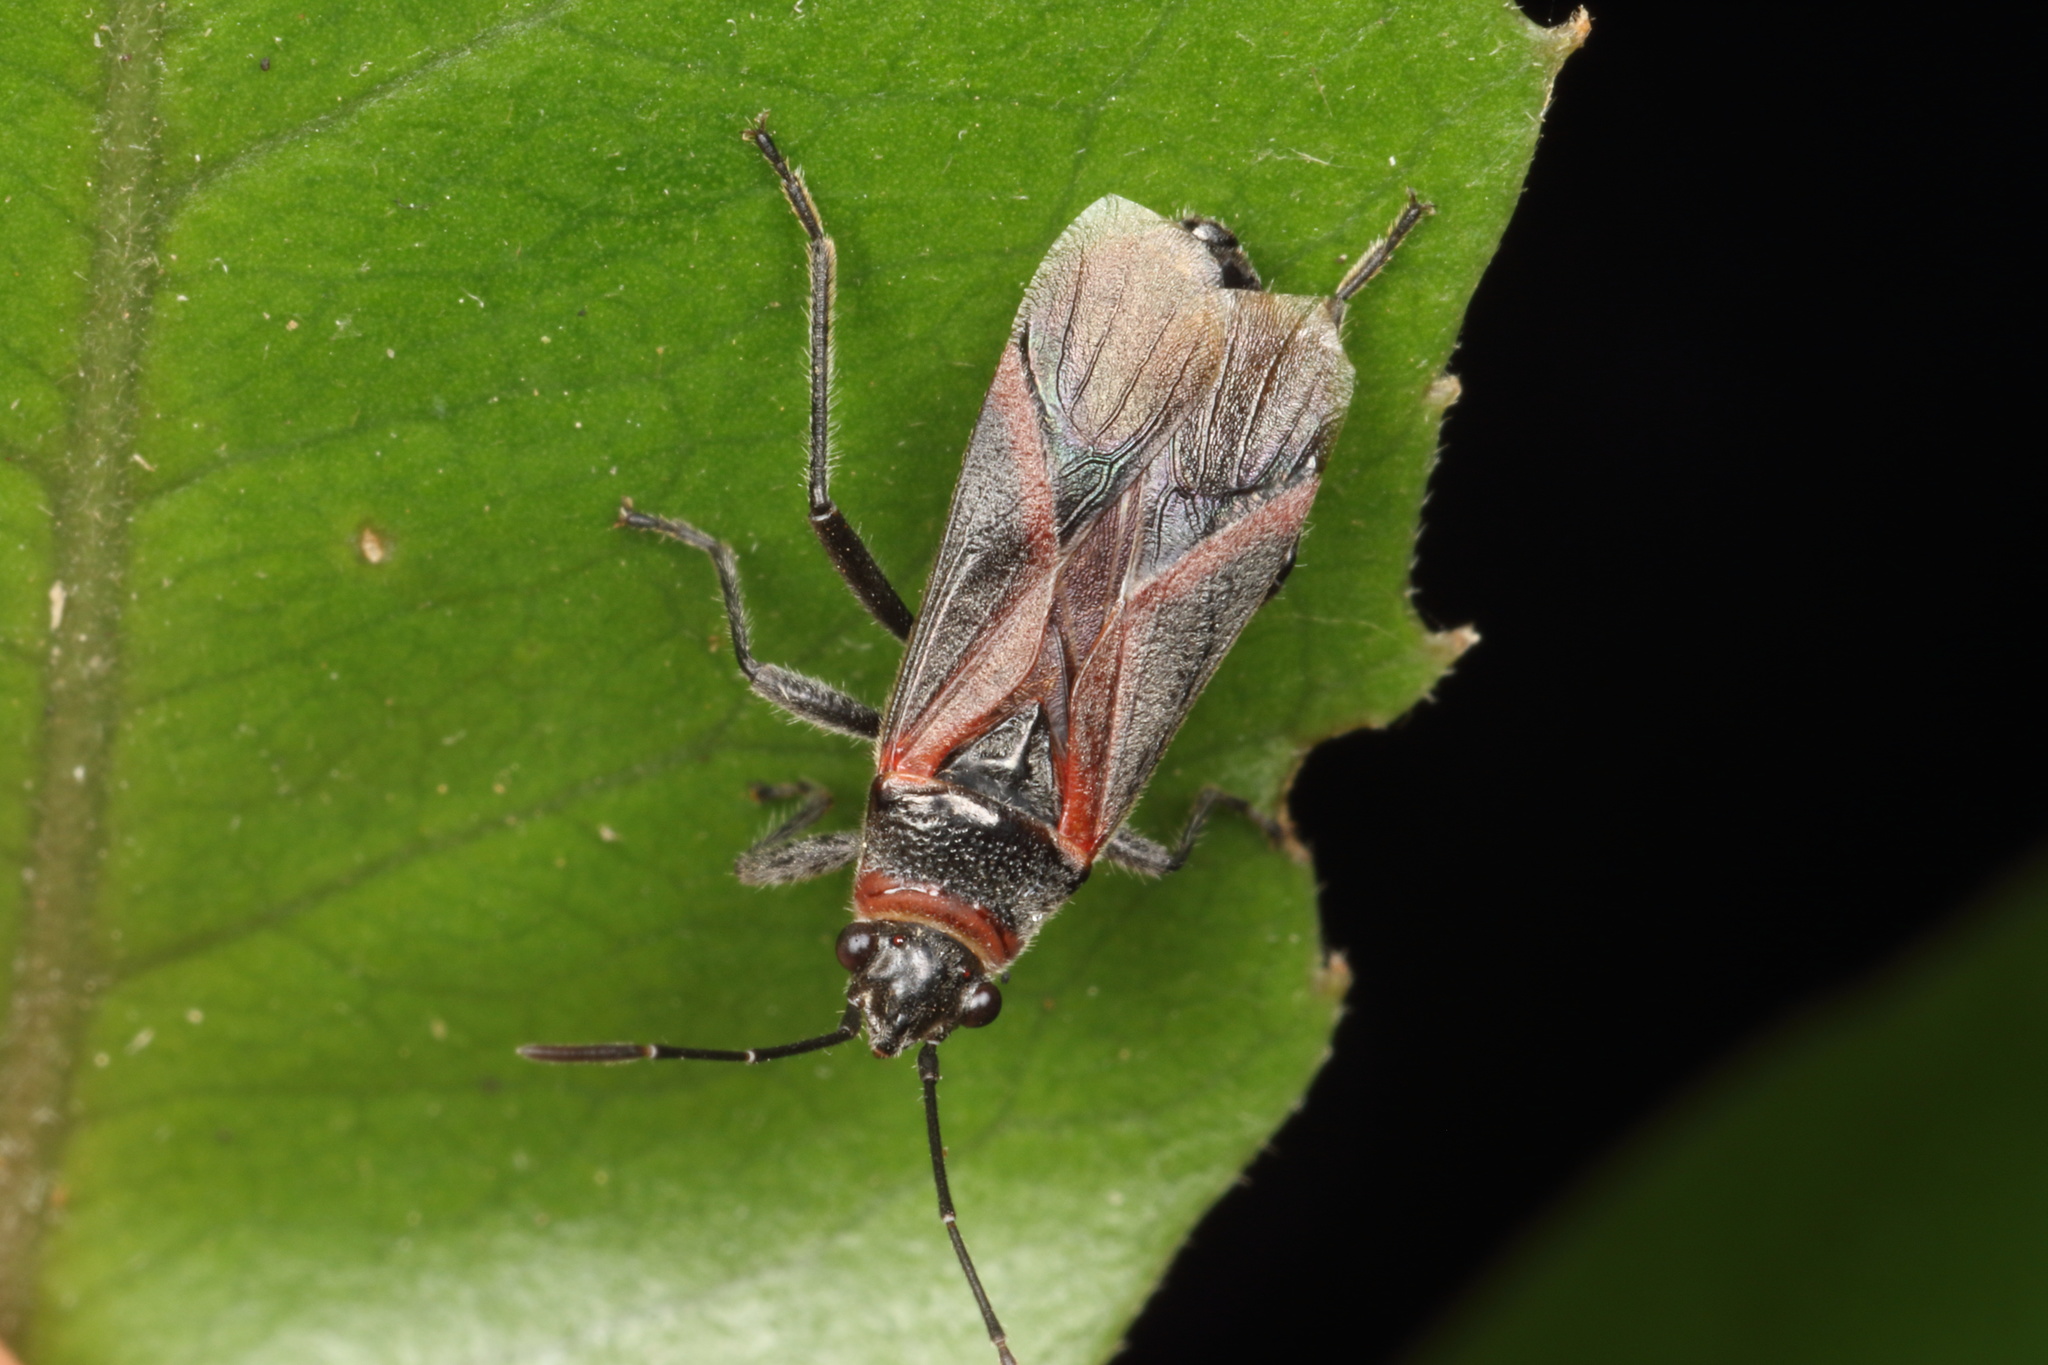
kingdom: Animalia
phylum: Arthropoda
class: Insecta
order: Hemiptera
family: Lygaeidae
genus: Arocatus
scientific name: Arocatus rusticus
